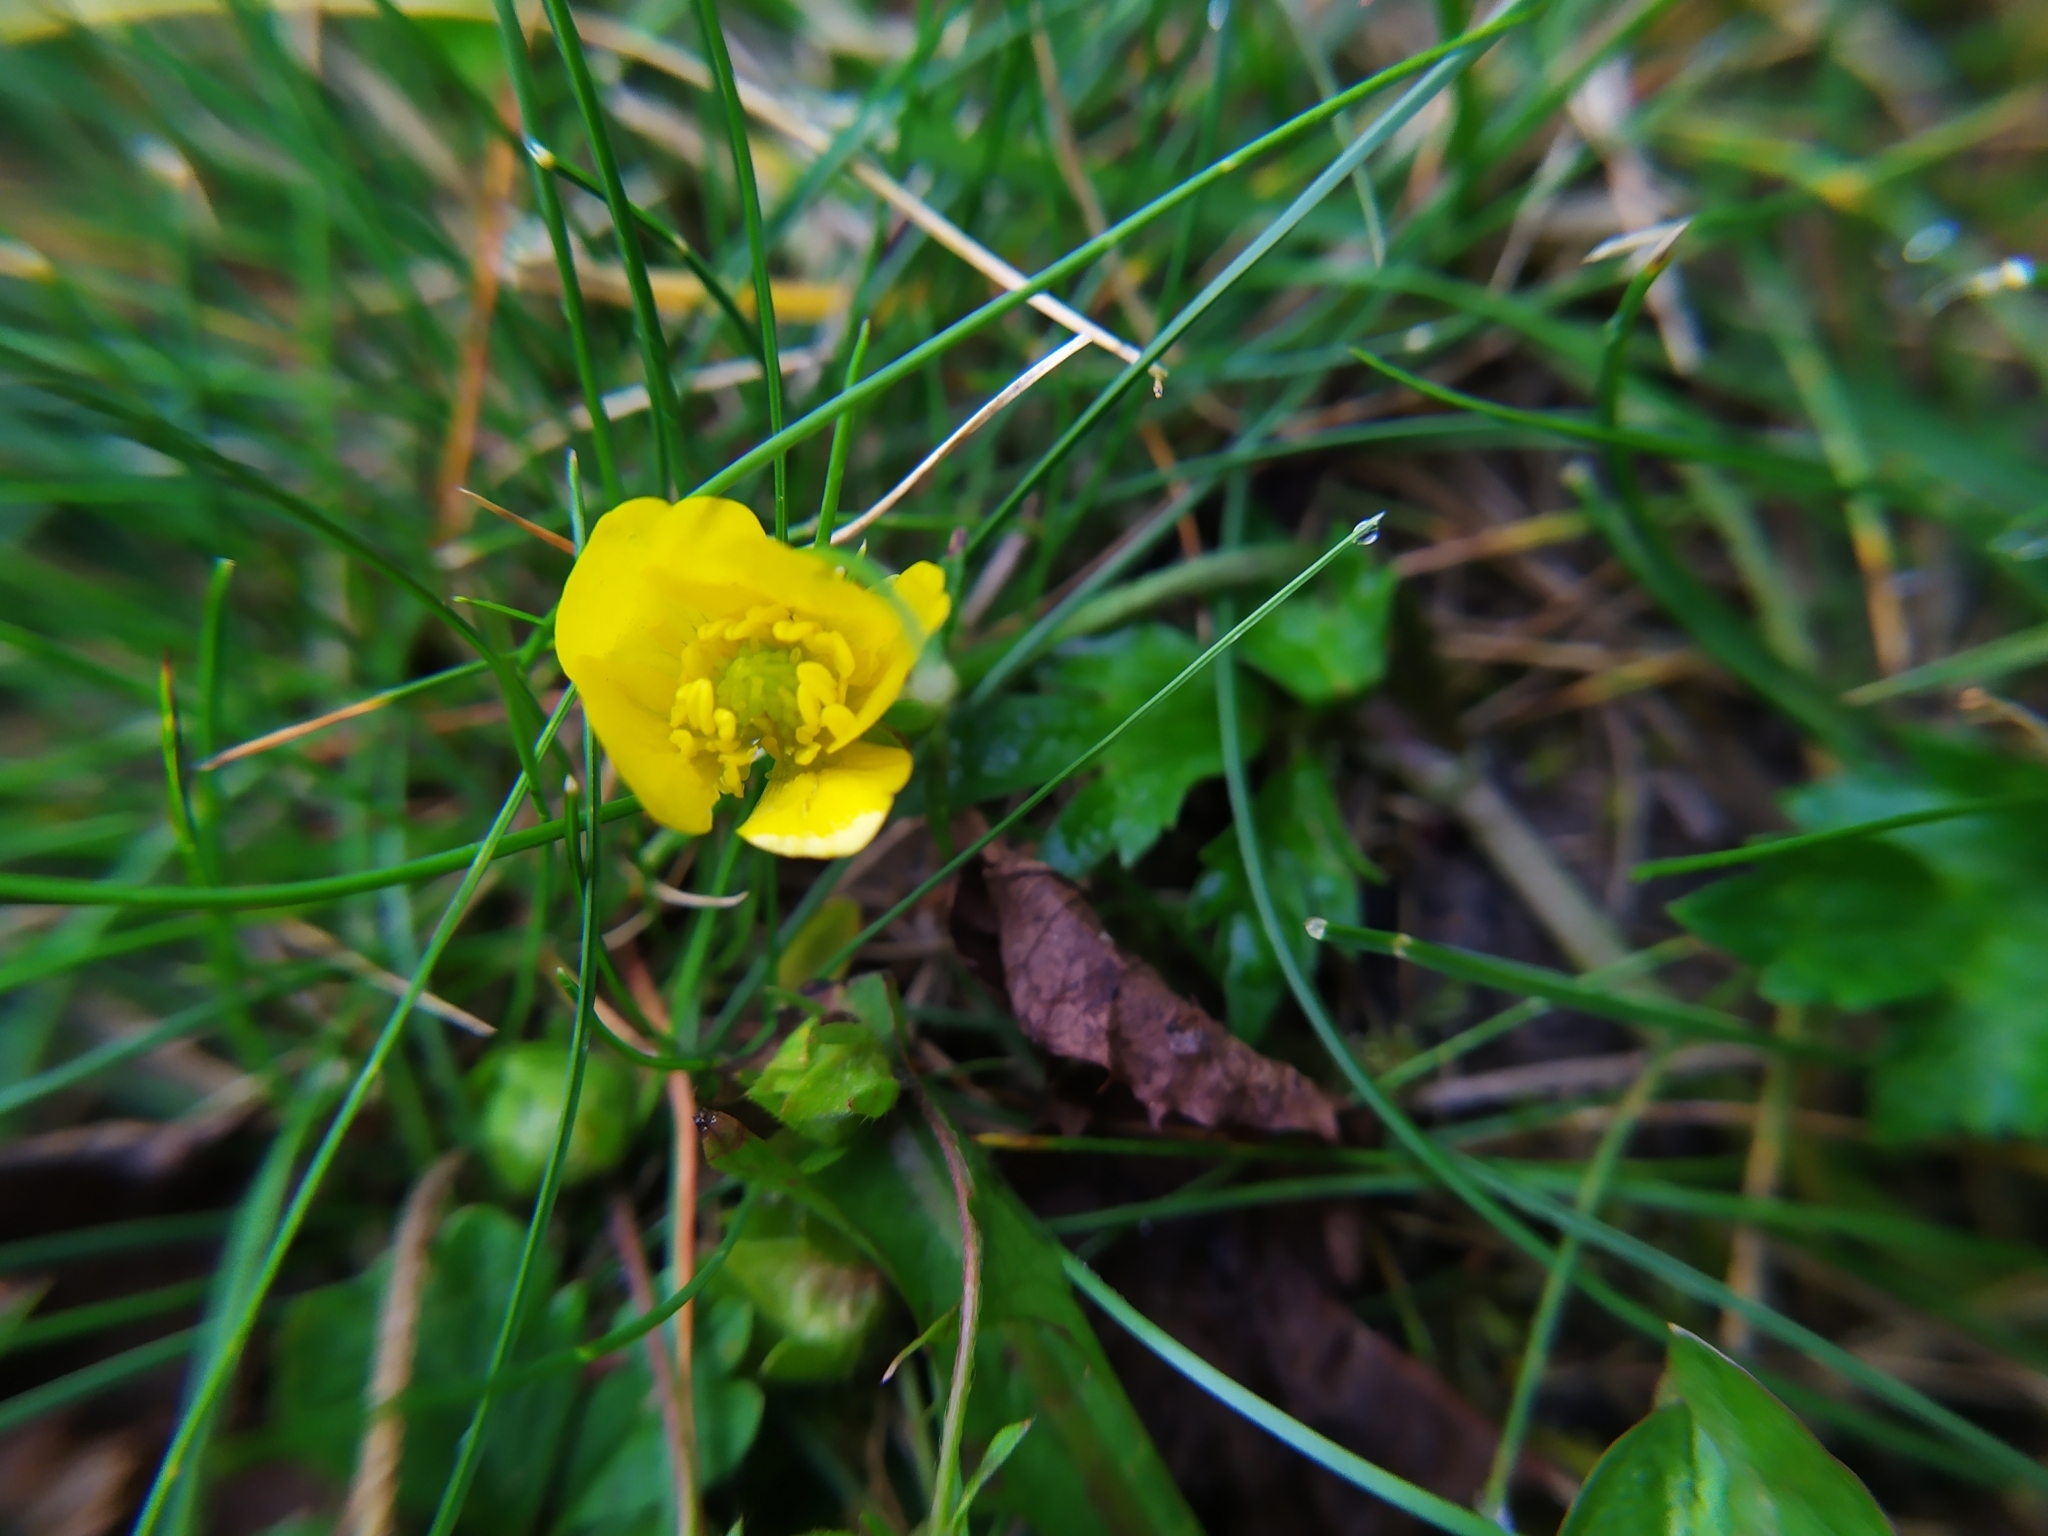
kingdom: Plantae
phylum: Tracheophyta
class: Magnoliopsida
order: Ranunculales
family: Ranunculaceae
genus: Ranunculus
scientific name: Ranunculus repens
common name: Creeping buttercup
